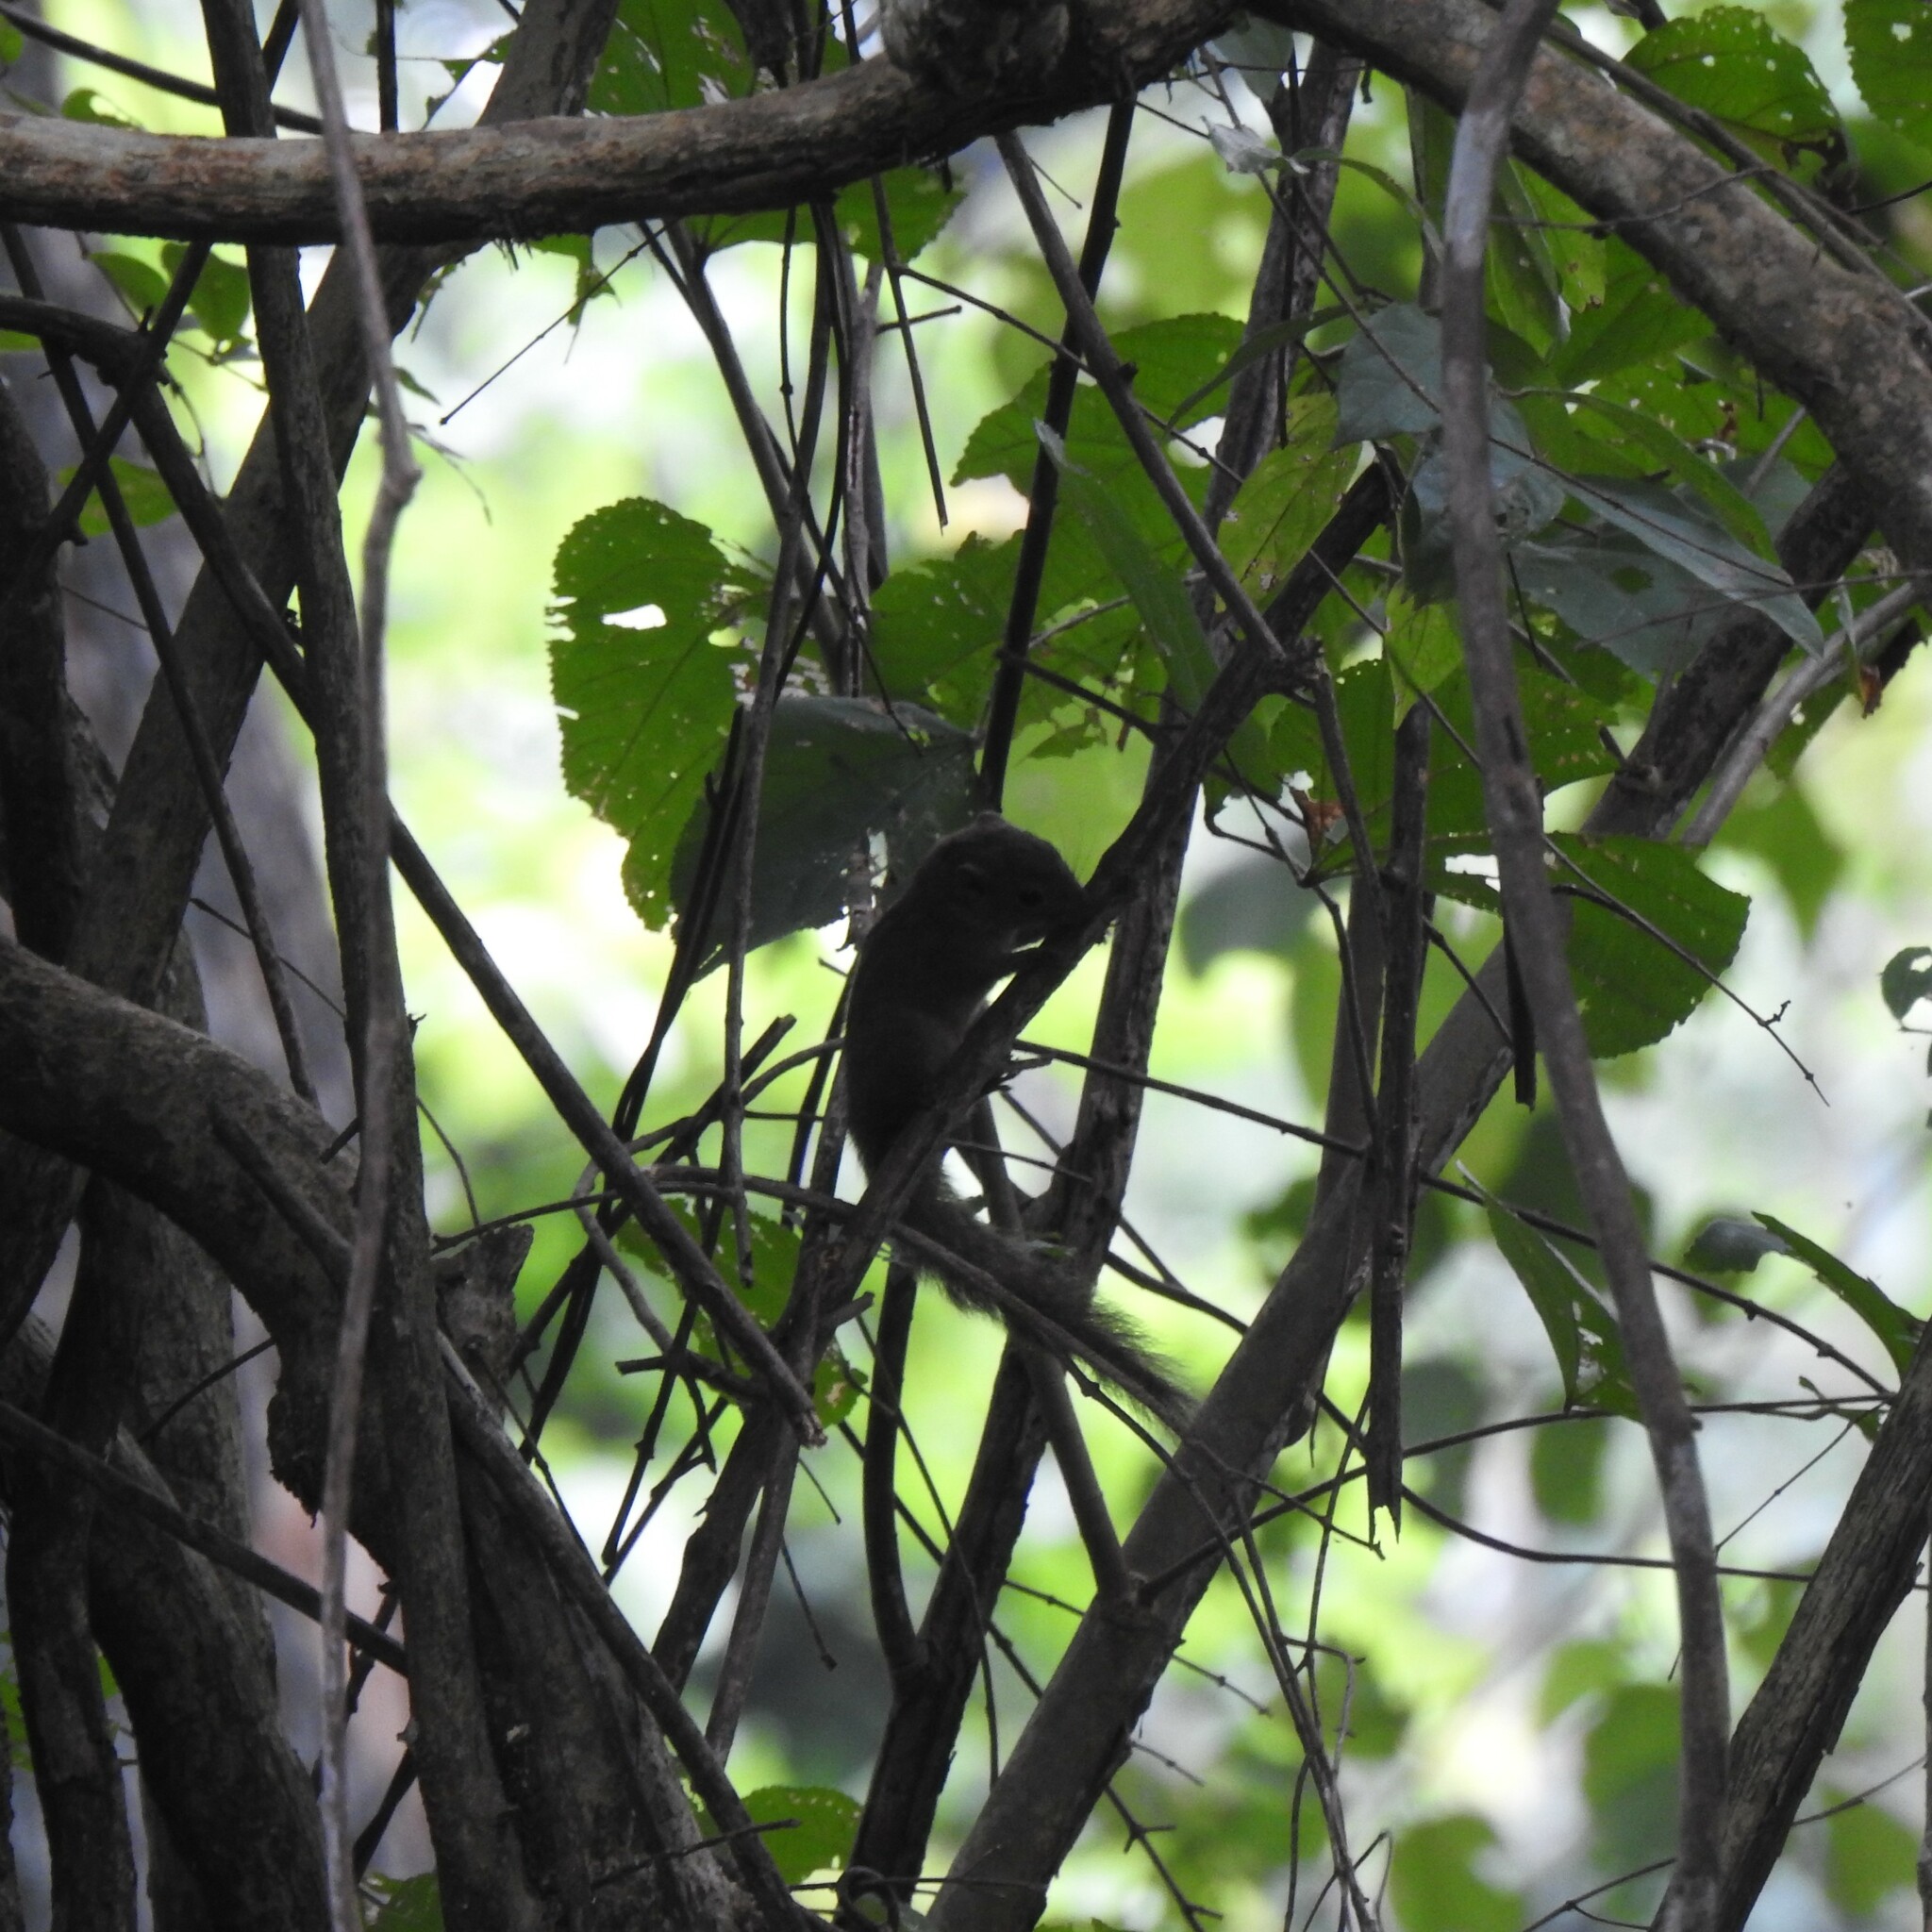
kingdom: Animalia
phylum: Chordata
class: Mammalia
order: Rodentia
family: Sciuridae
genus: Funambulus
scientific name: Funambulus sublineatus
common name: Dusky palm squirrel
